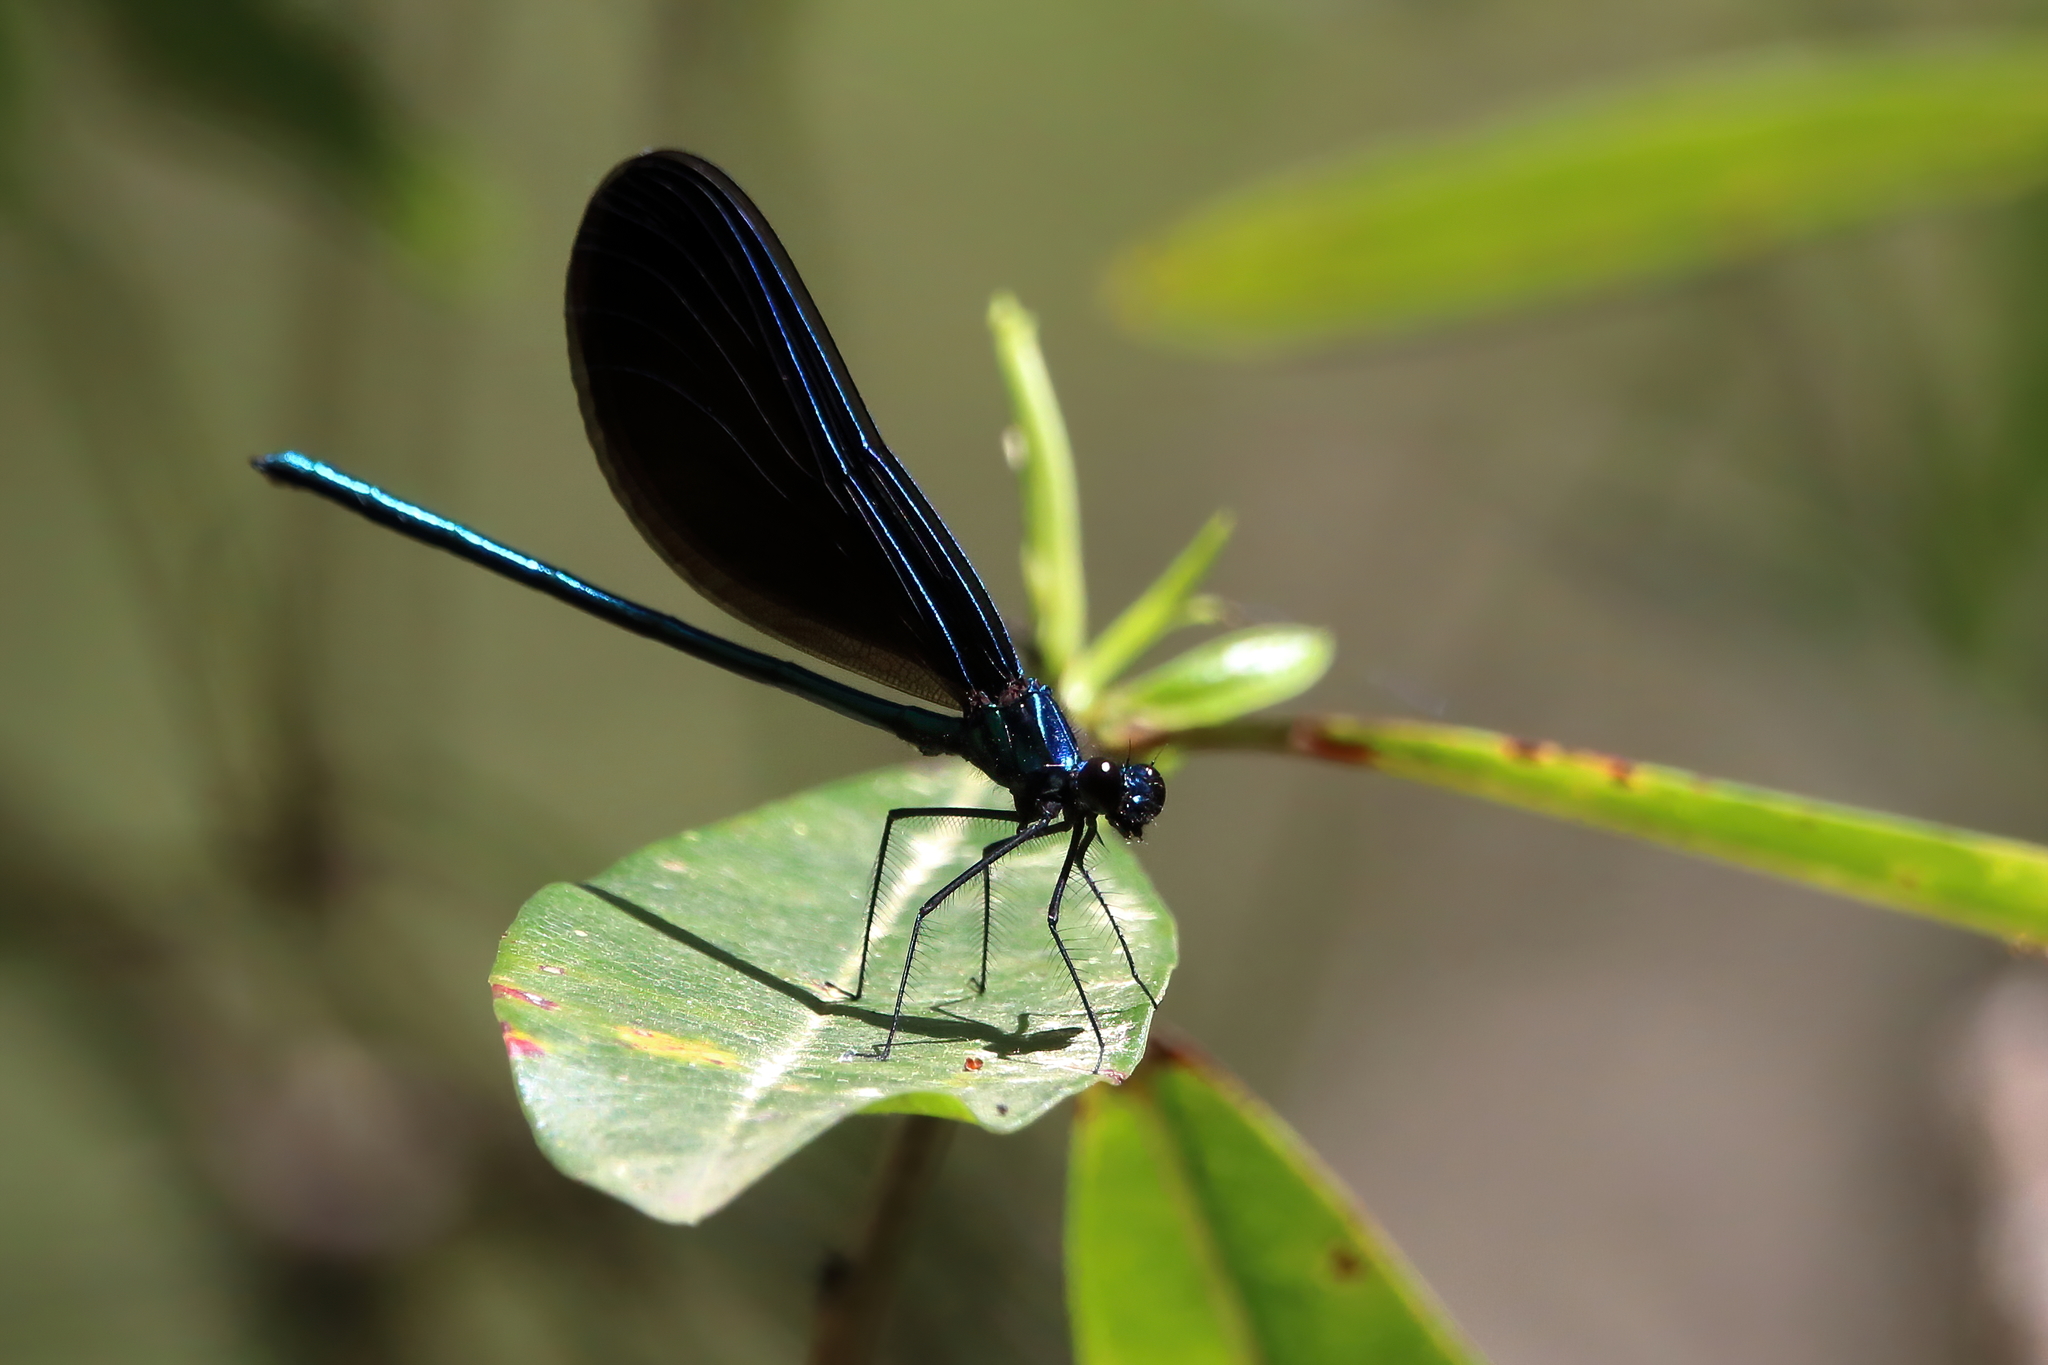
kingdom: Animalia
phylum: Arthropoda
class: Insecta
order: Odonata
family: Calopterygidae
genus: Calopteryx
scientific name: Calopteryx maculata
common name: Ebony jewelwing
